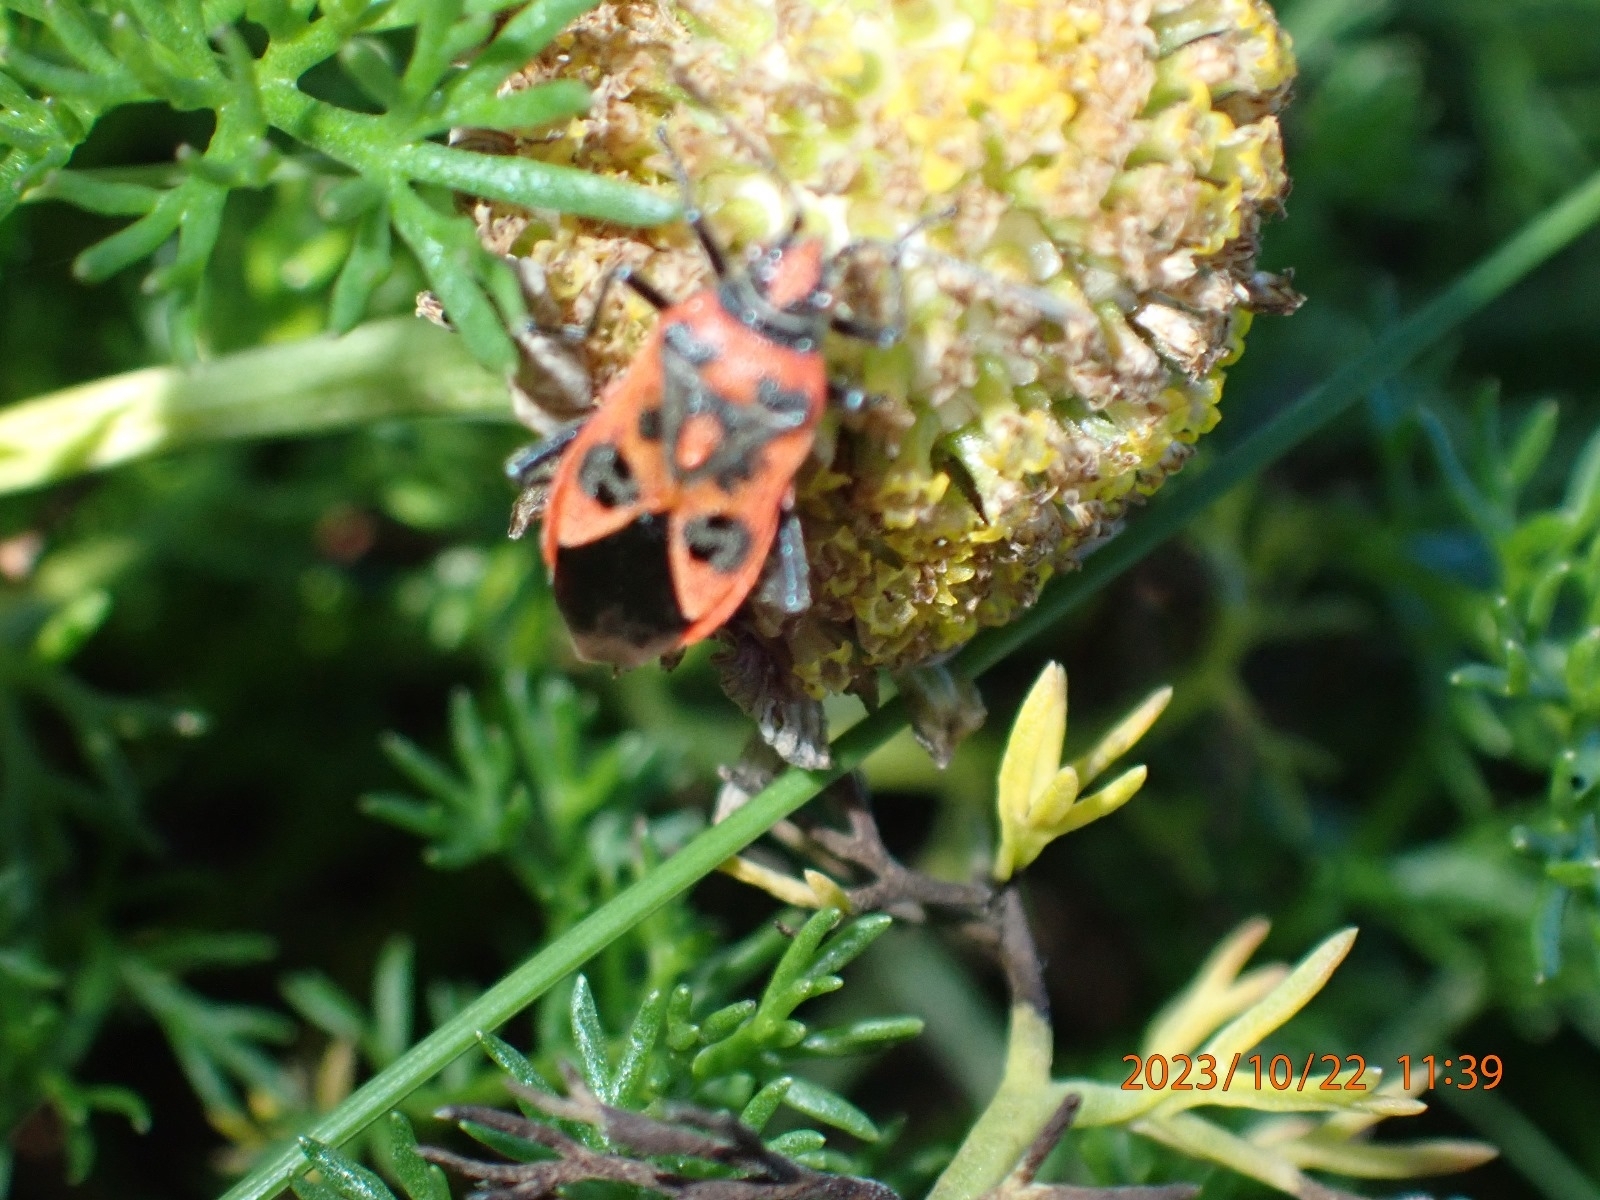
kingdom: Animalia
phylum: Arthropoda
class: Insecta
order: Hemiptera
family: Rhopalidae
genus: Corizus
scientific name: Corizus hyoscyami
